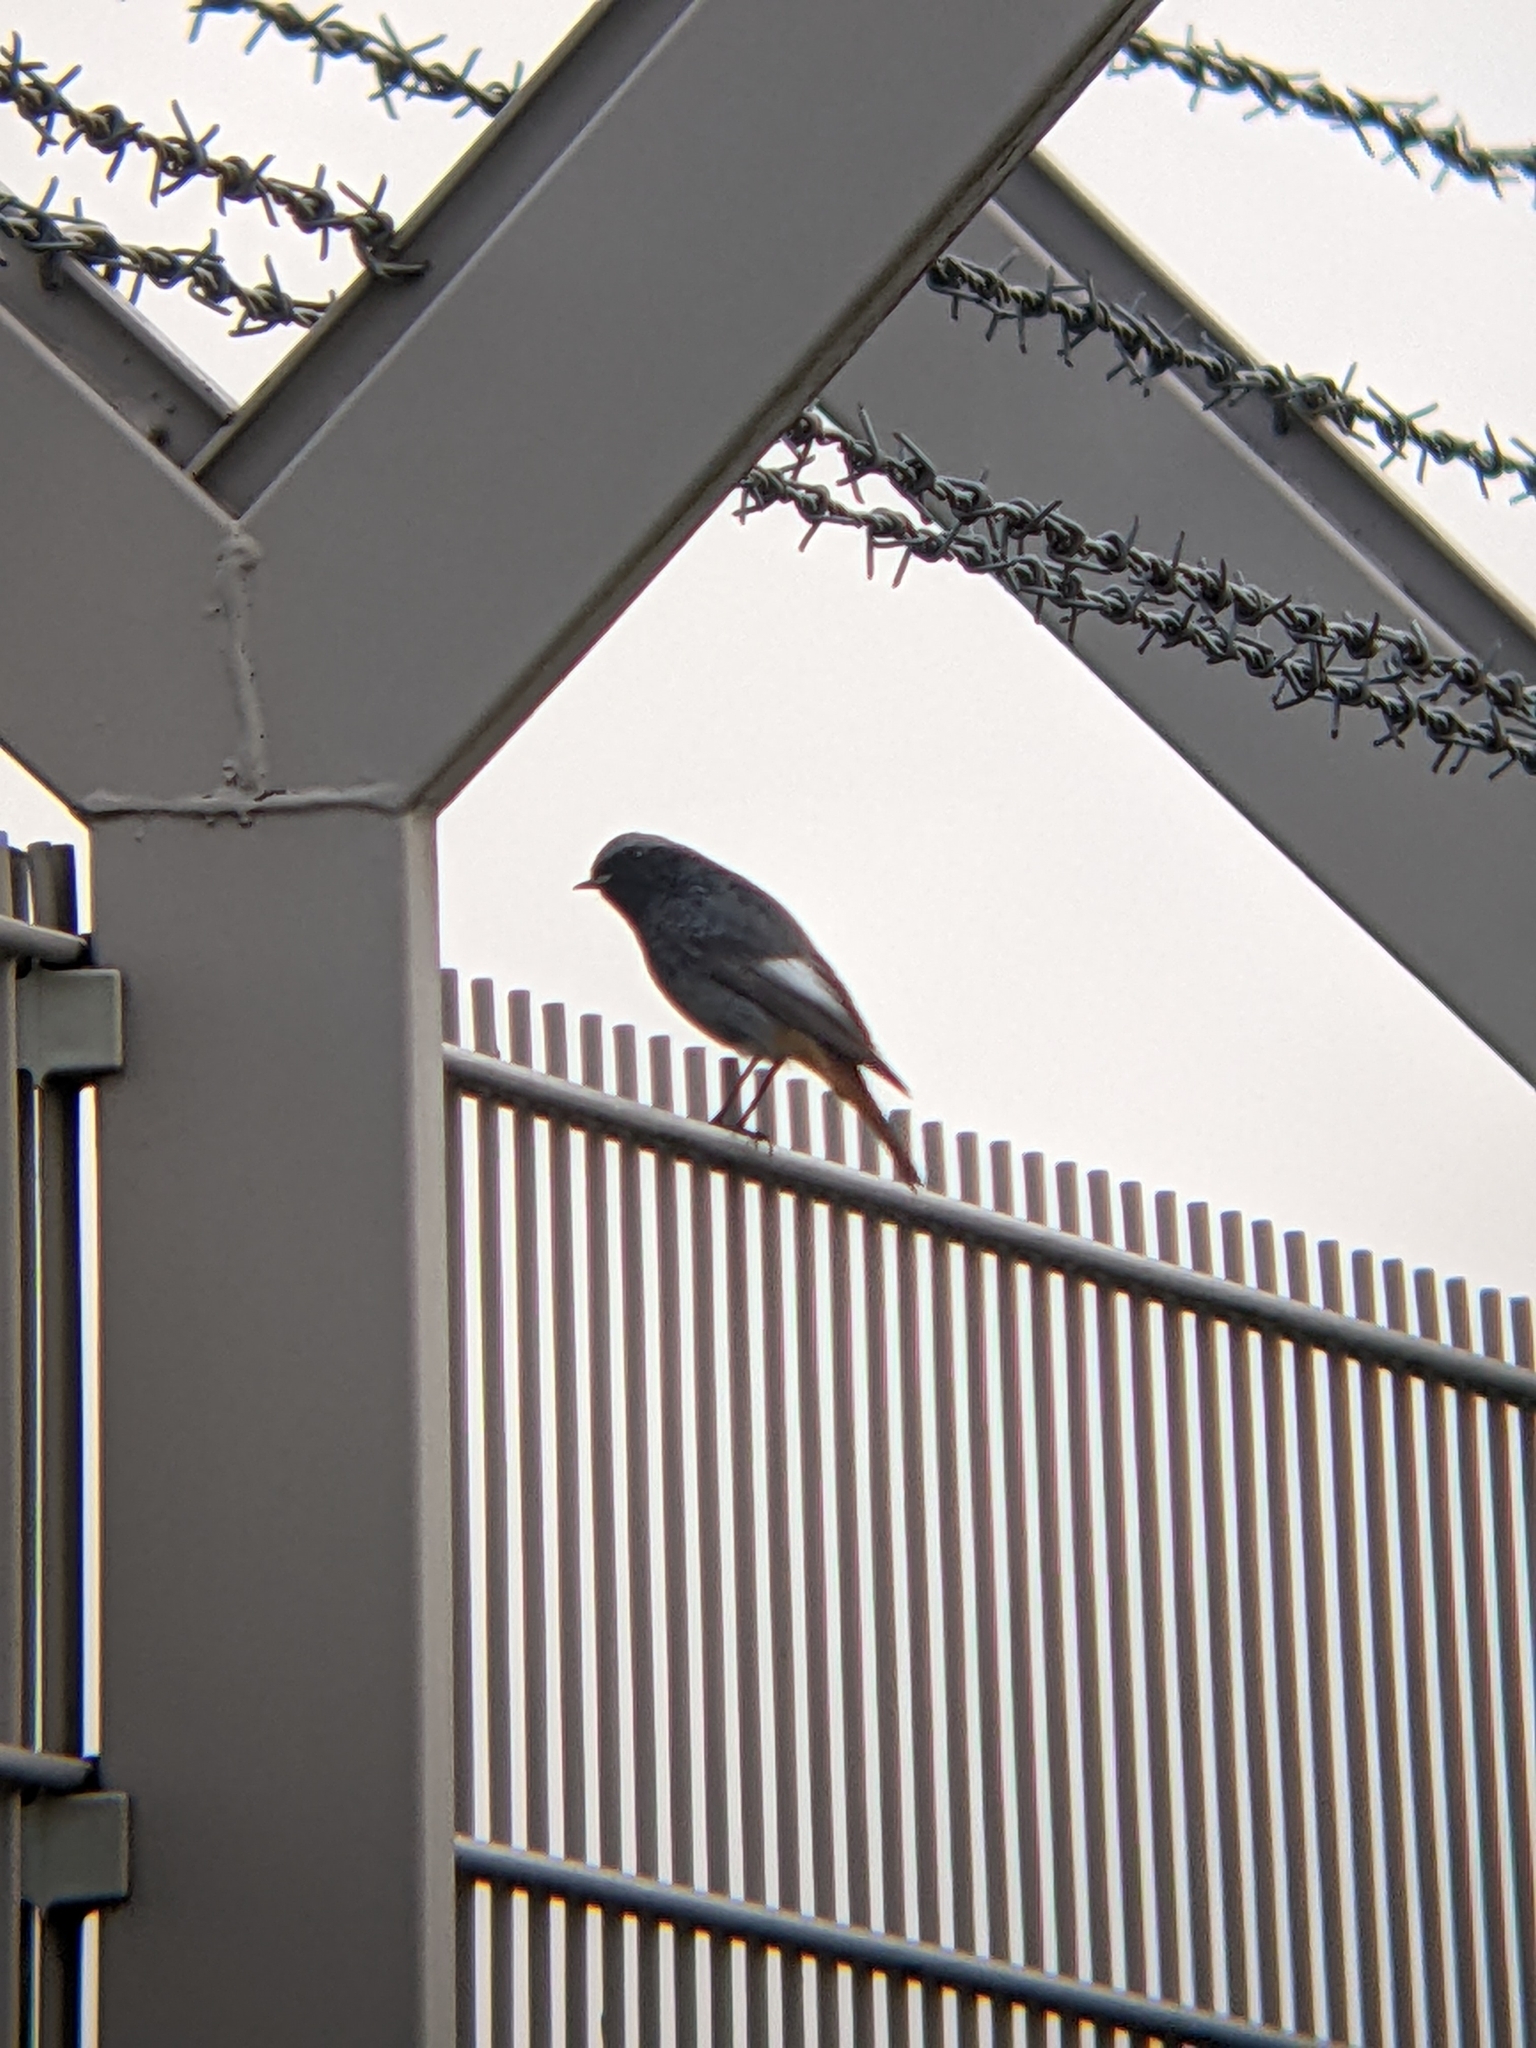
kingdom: Animalia
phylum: Chordata
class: Aves
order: Passeriformes
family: Muscicapidae
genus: Phoenicurus
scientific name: Phoenicurus ochruros
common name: Black redstart
